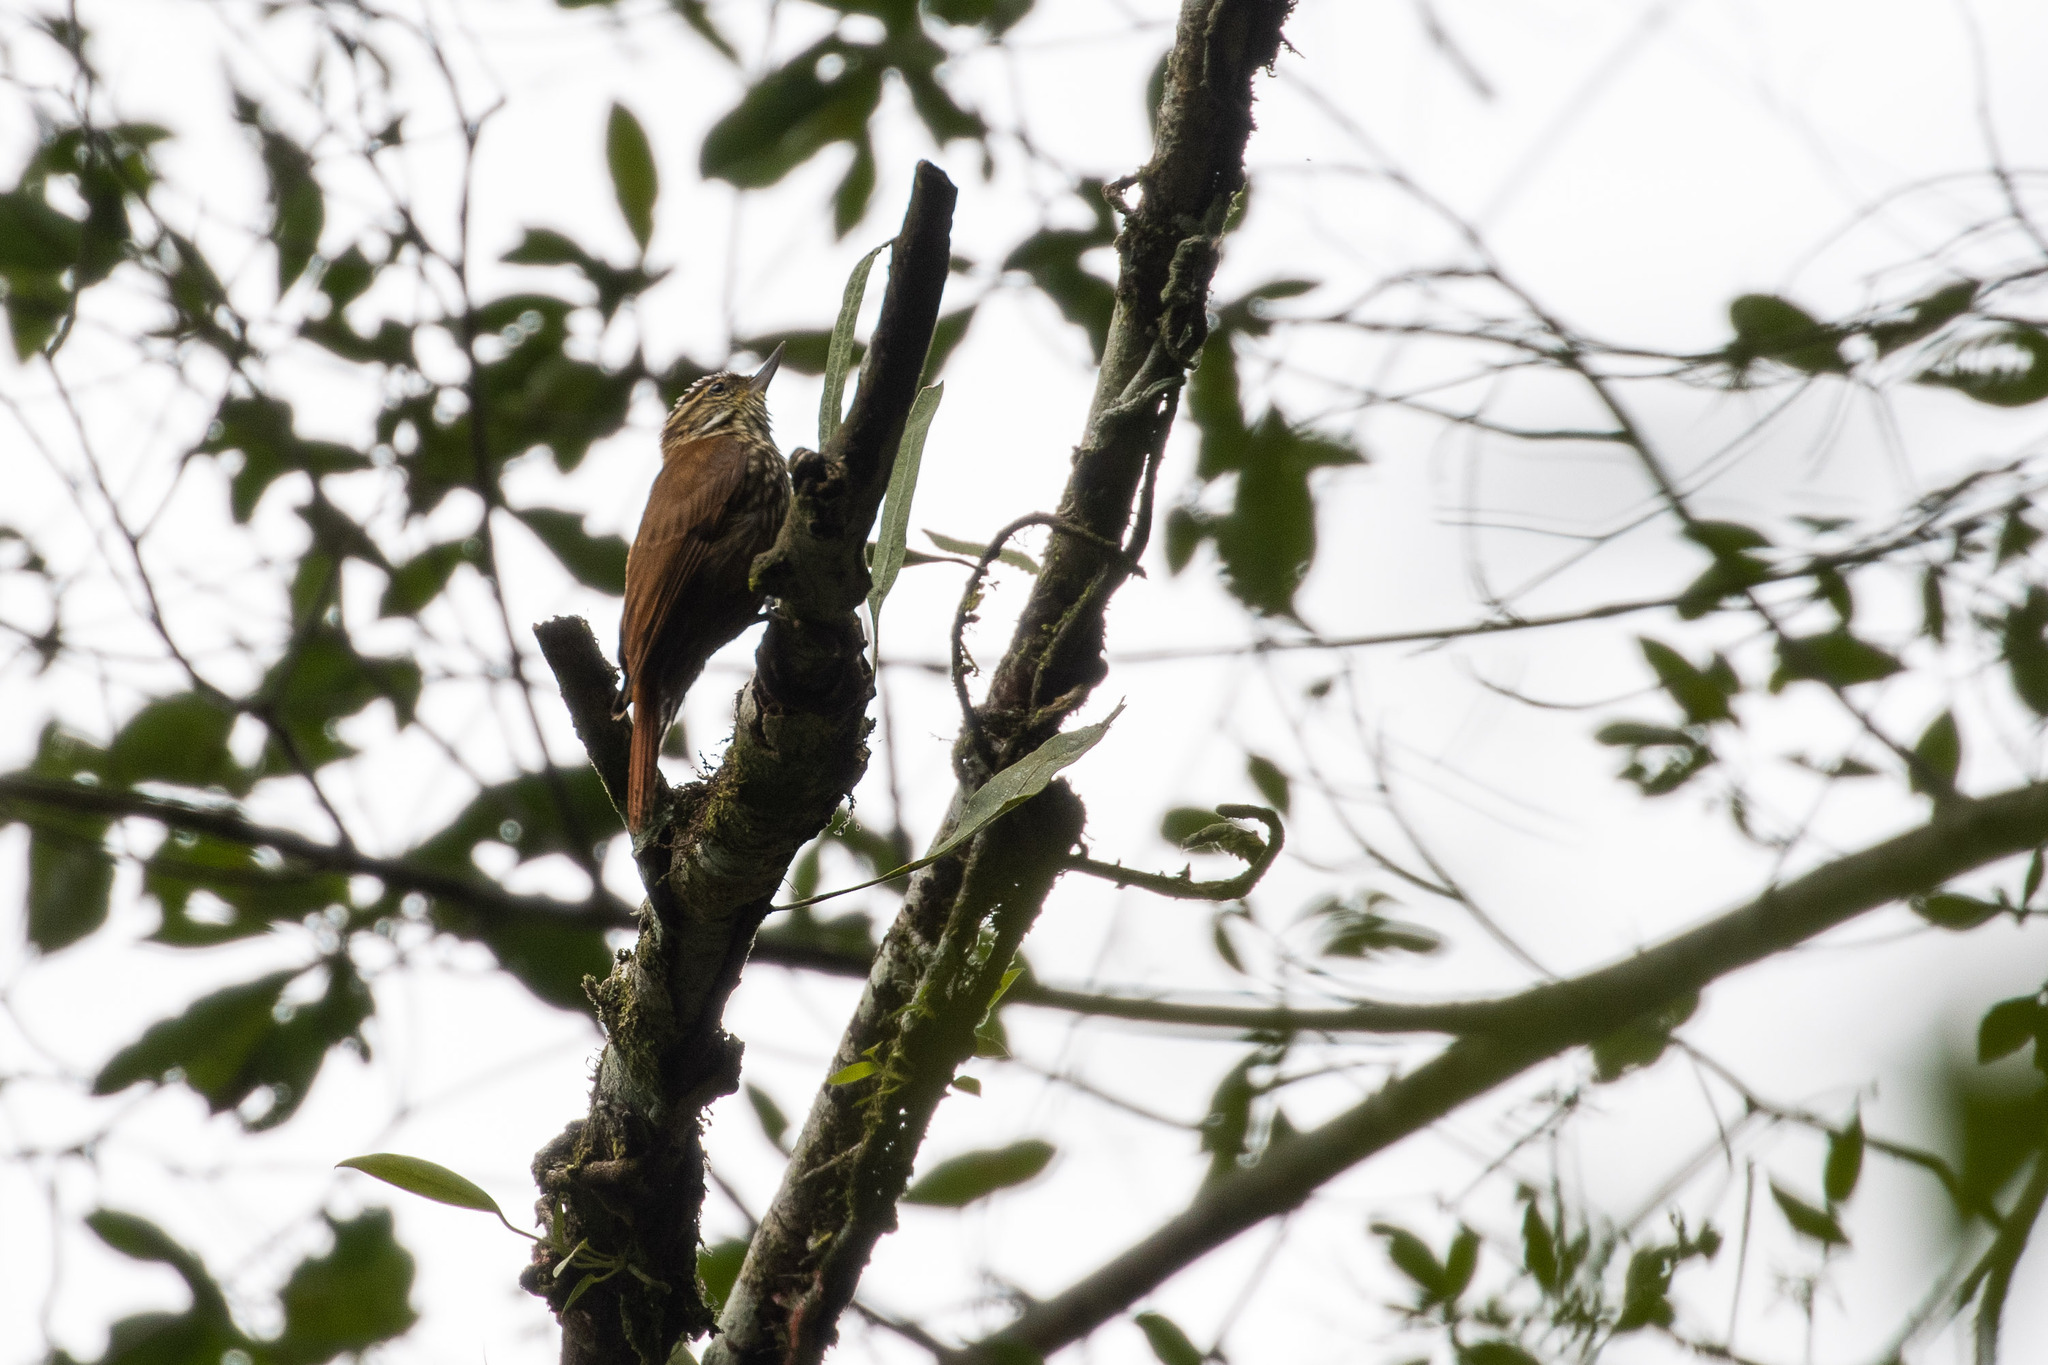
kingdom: Animalia
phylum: Chordata
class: Aves
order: Passeriformes
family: Furnariidae
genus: Xenops
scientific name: Xenops rutilans
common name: Streaked xenops
